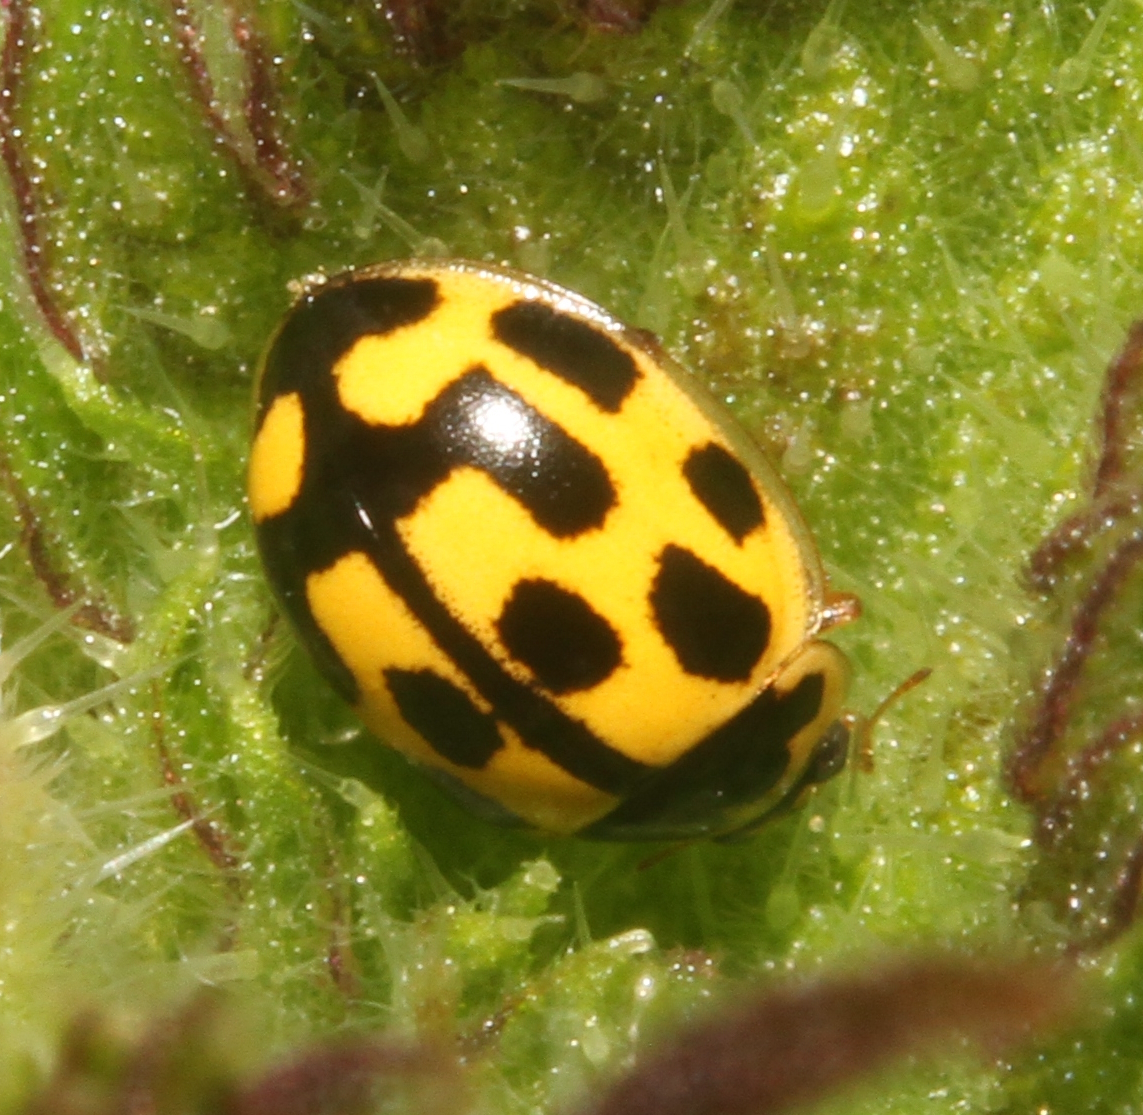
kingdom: Animalia
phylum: Arthropoda
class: Insecta
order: Coleoptera
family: Coccinellidae
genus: Propylaea
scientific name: Propylaea quatuordecimpunctata
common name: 14-spotted ladybird beetle
